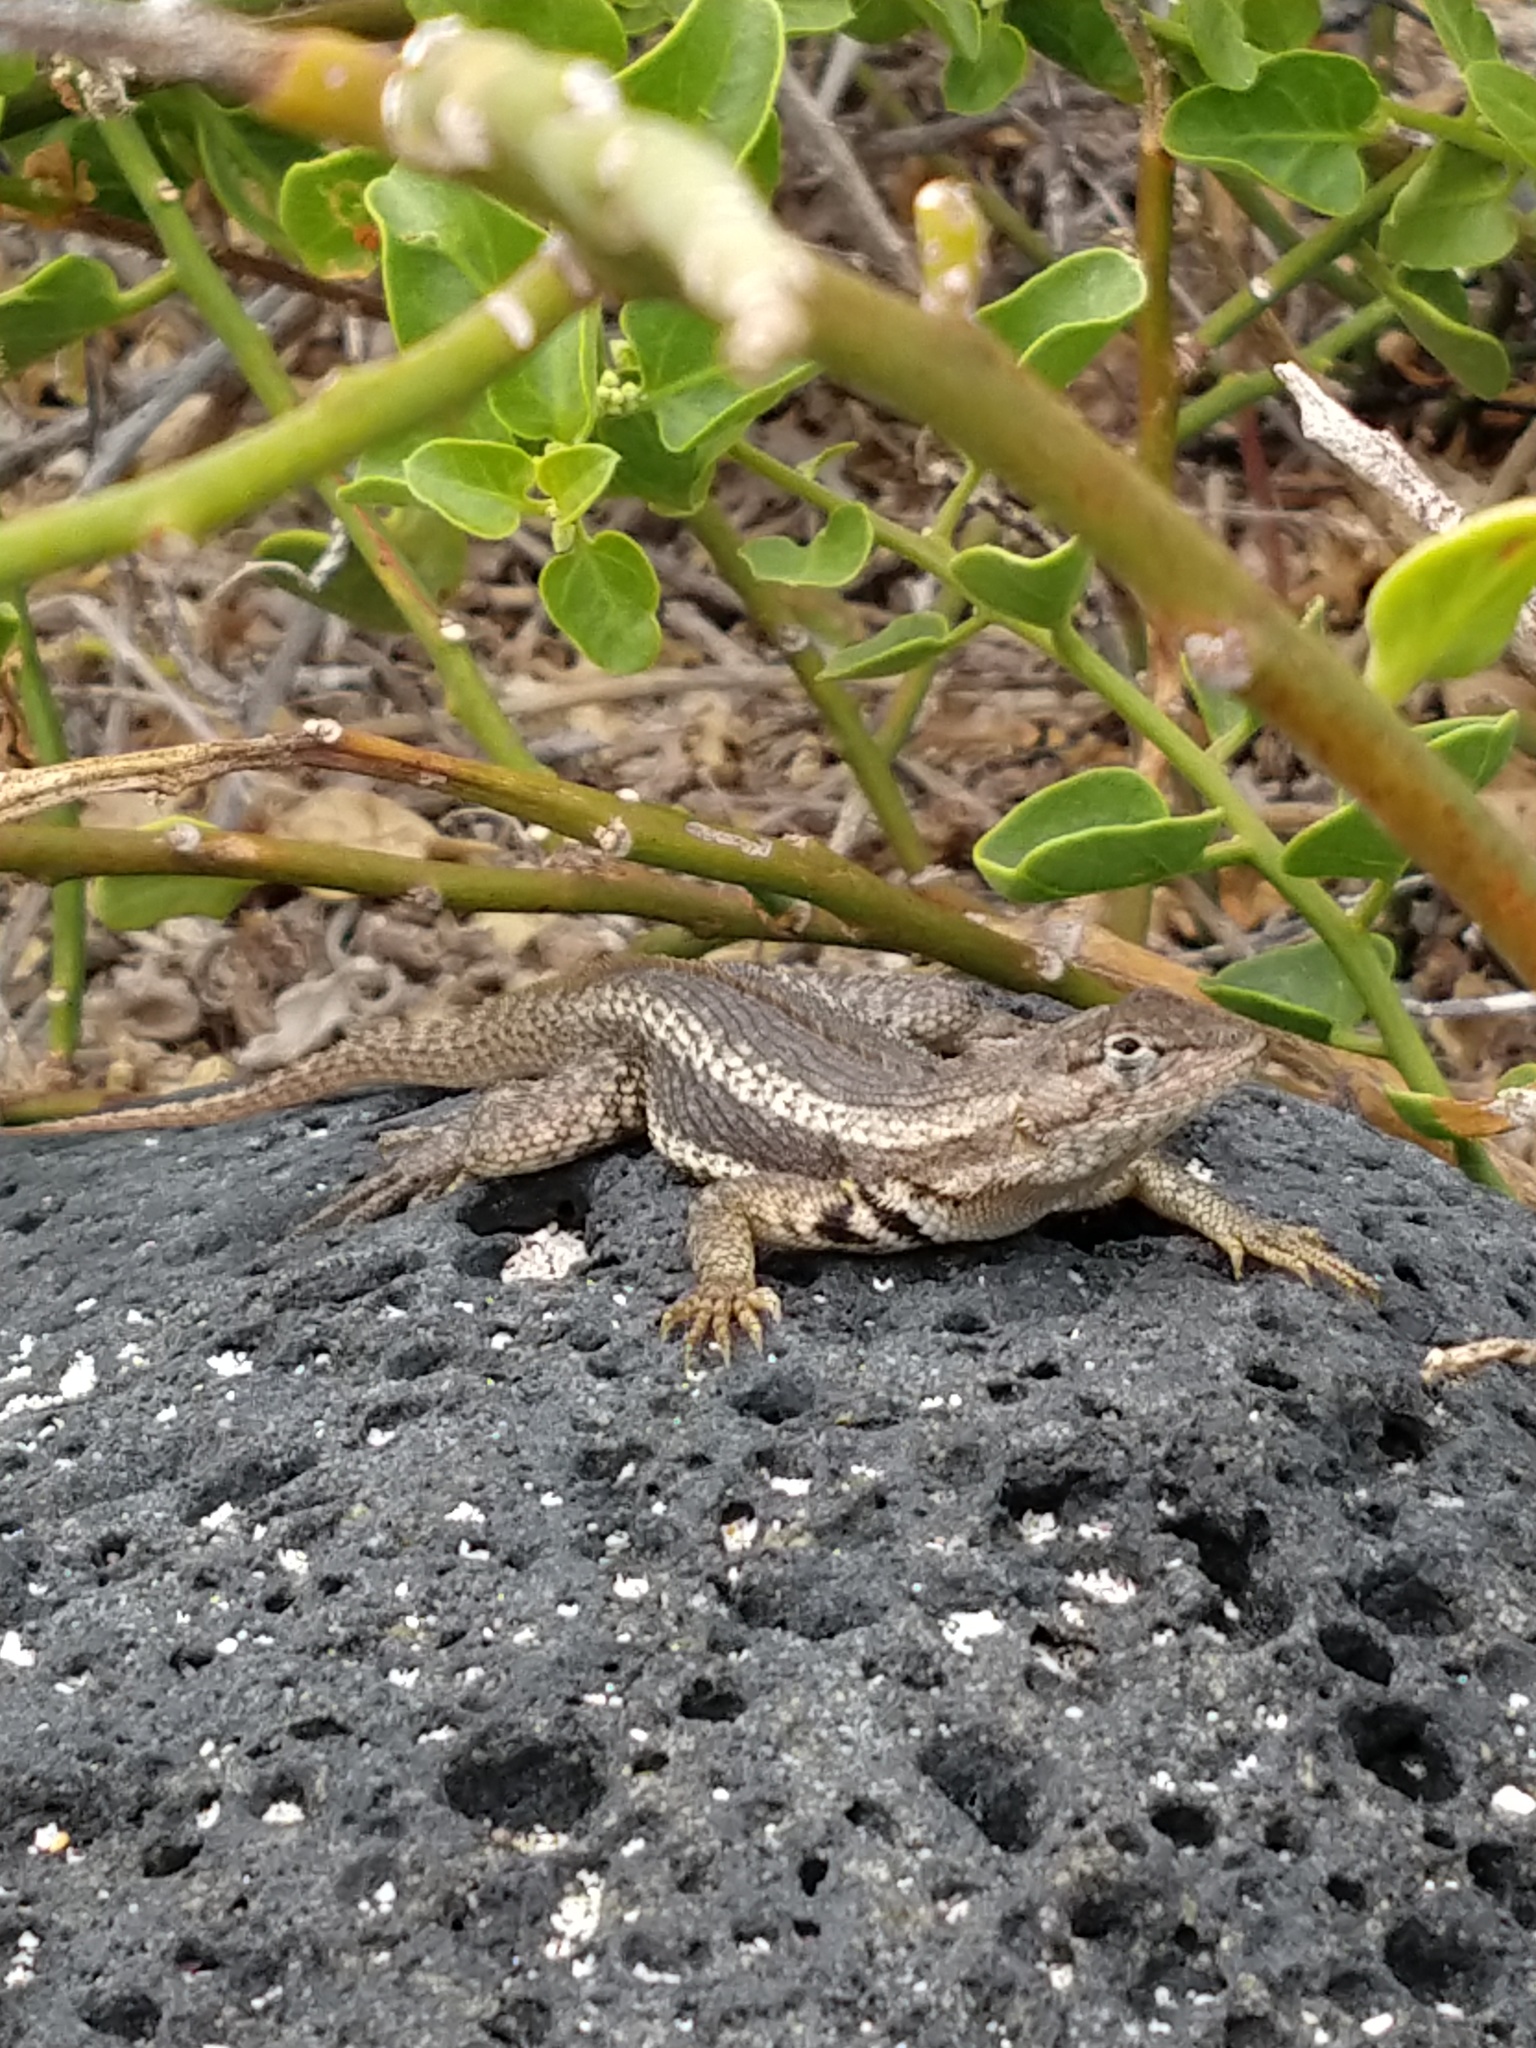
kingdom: Animalia
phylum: Chordata
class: Squamata
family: Tropiduridae
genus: Microlophus
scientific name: Microlophus bivittatus
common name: San cristobal lava lizard
